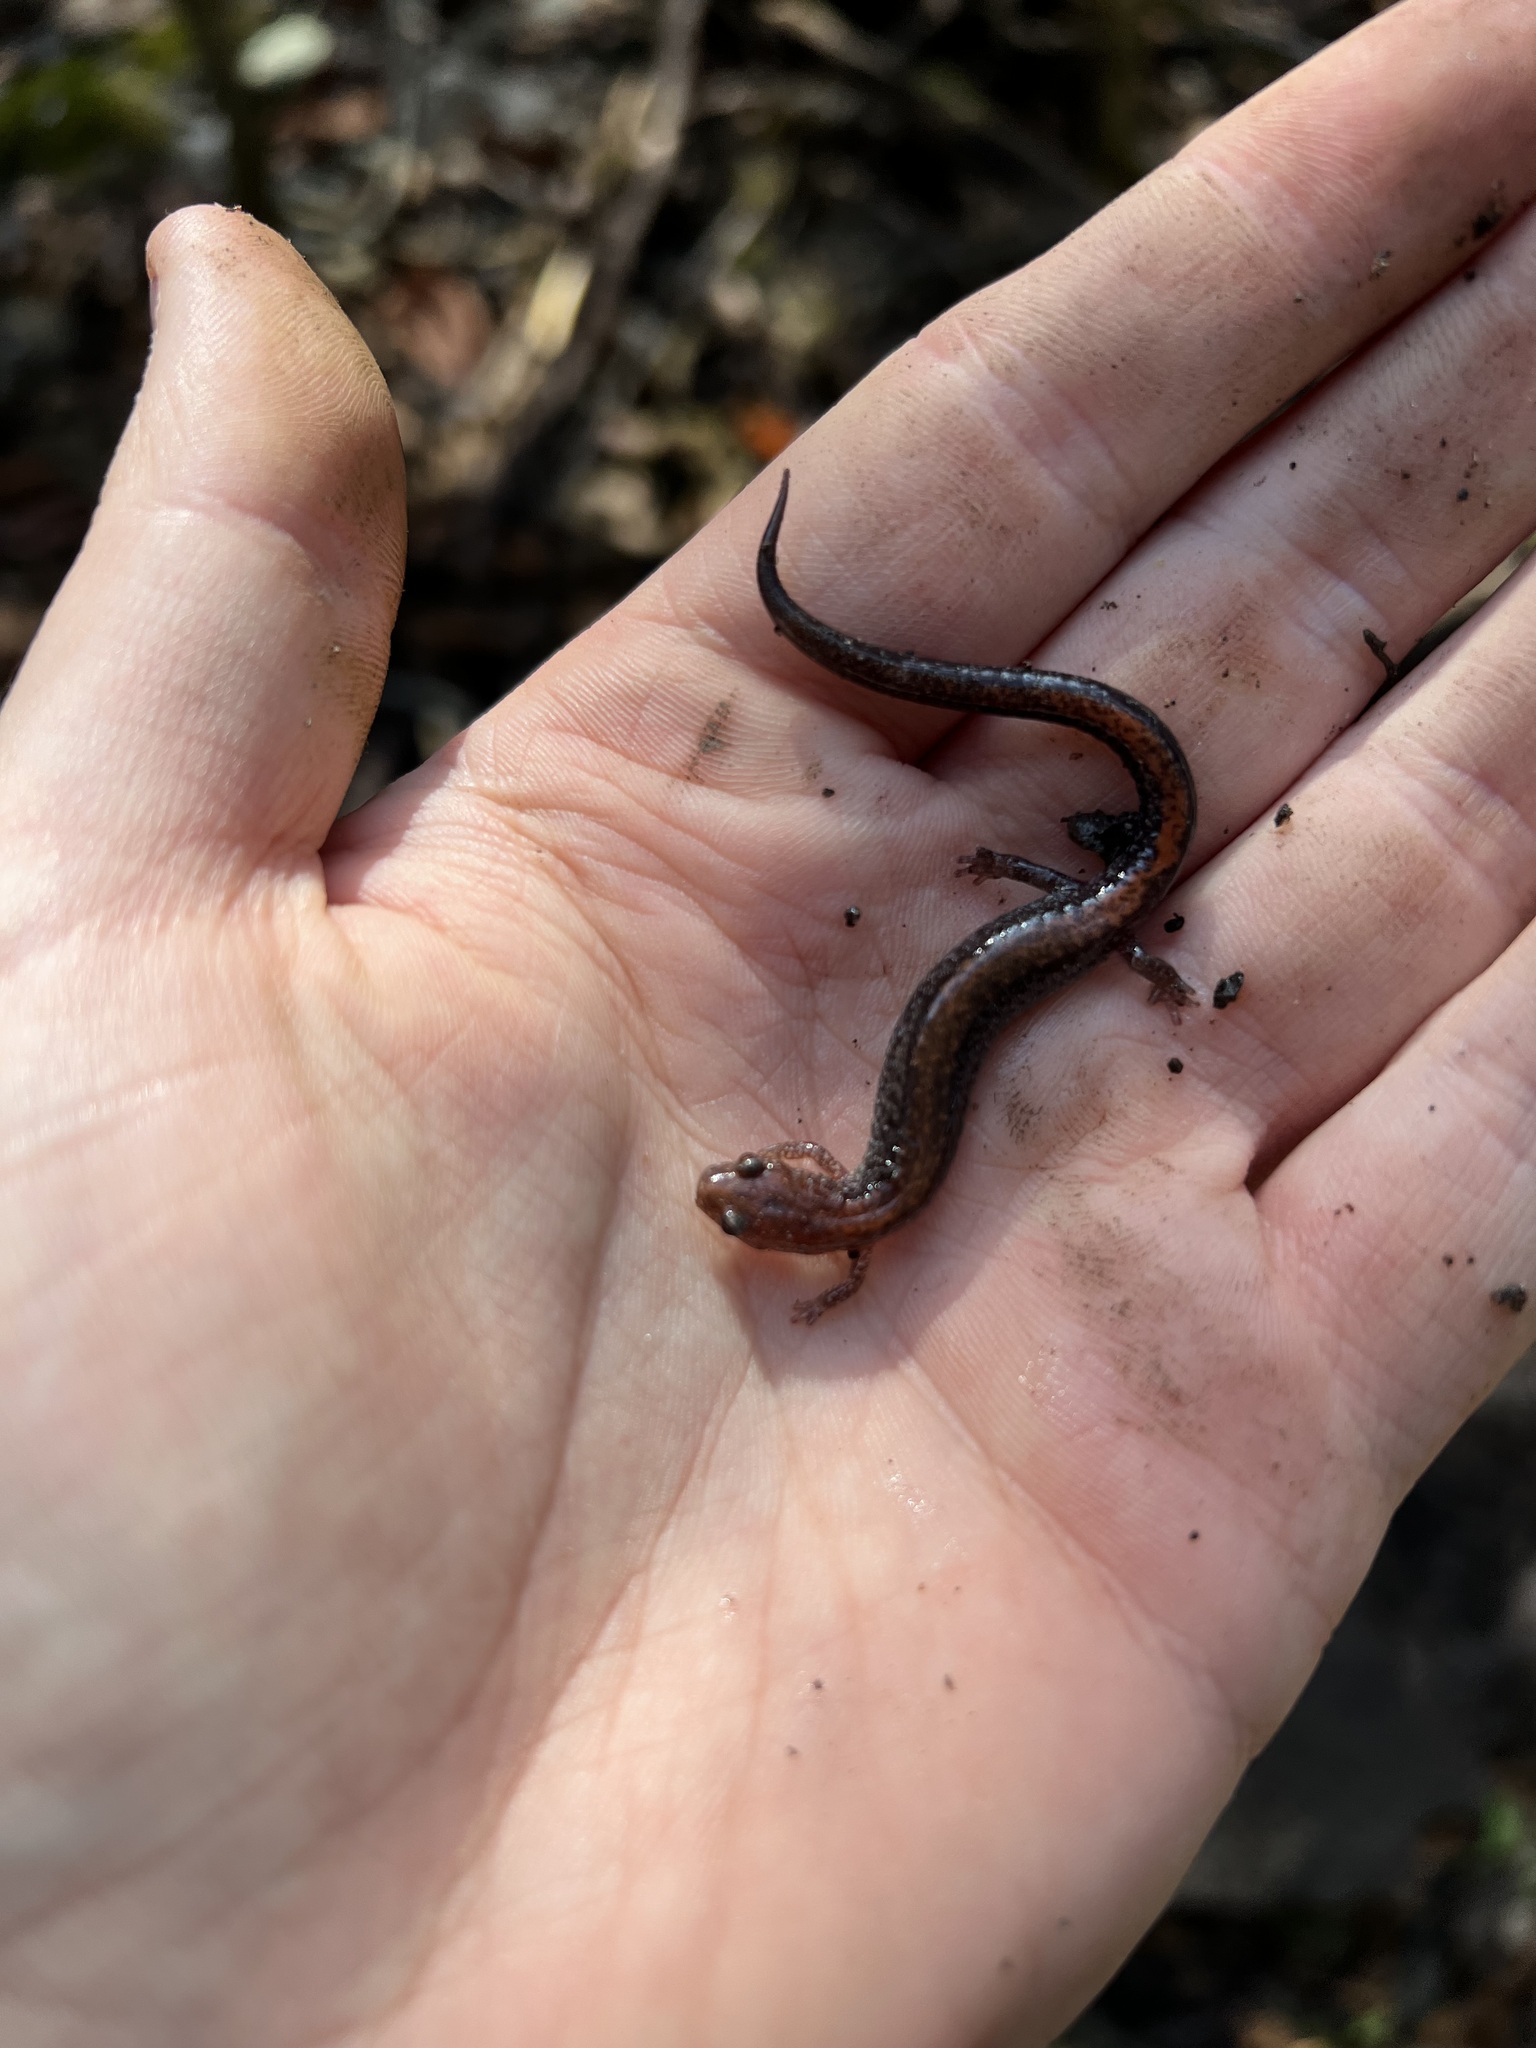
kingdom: Animalia
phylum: Chordata
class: Amphibia
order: Caudata
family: Plethodontidae
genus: Plethodon
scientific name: Plethodon cinereus
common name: Redback salamander
